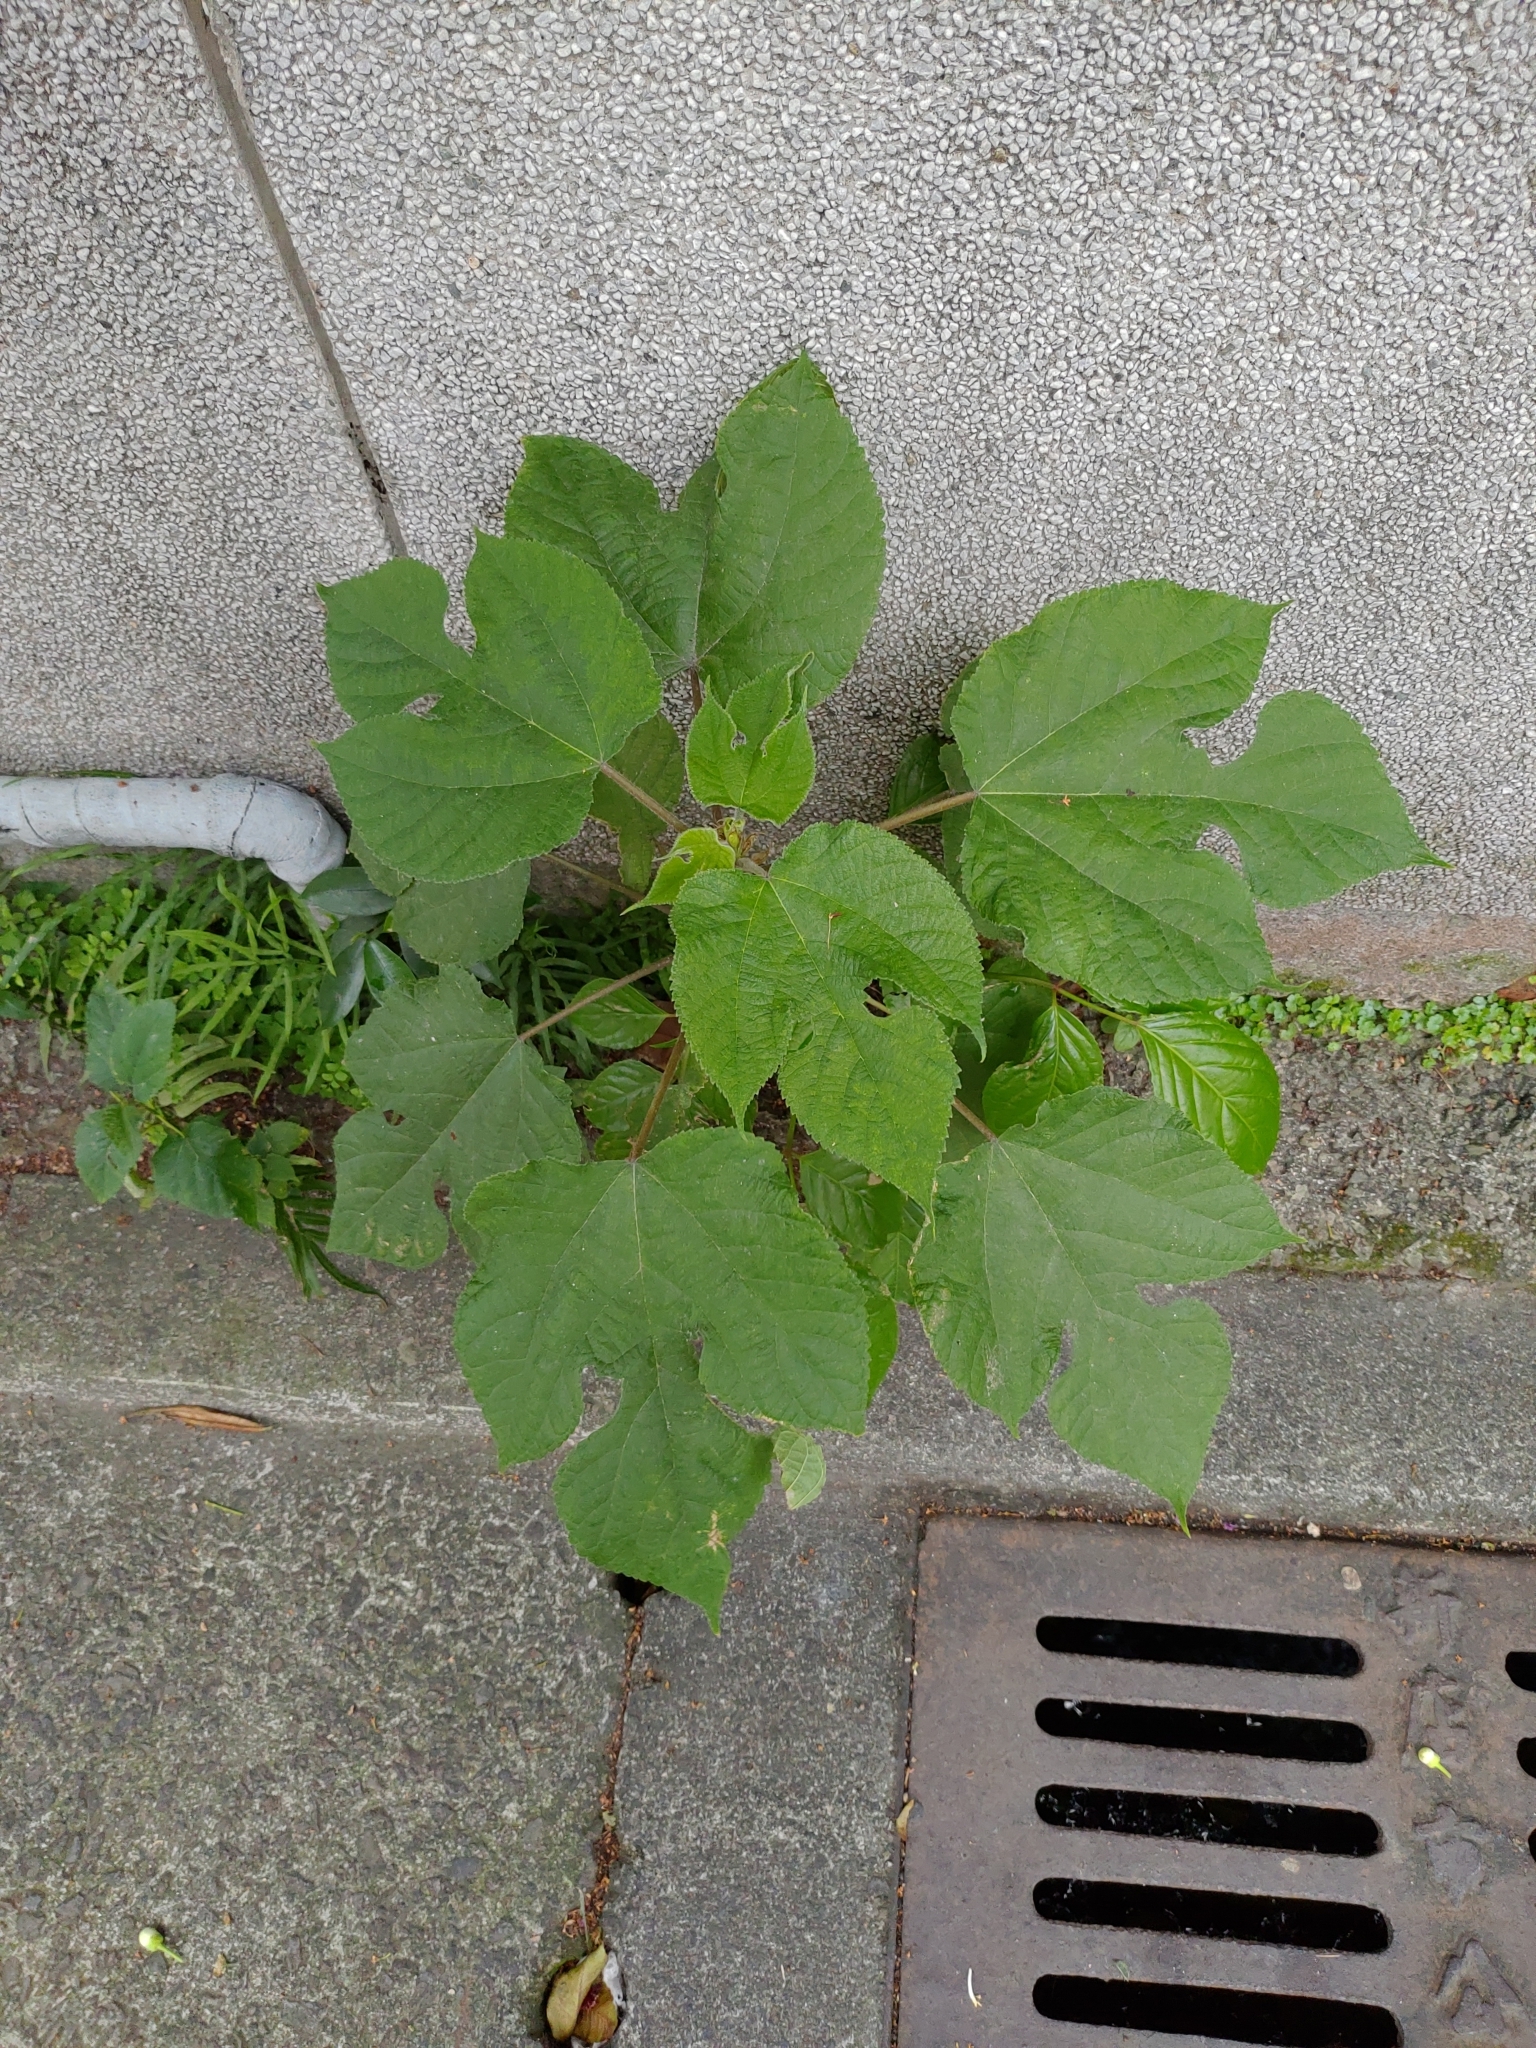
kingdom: Plantae
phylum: Tracheophyta
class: Magnoliopsida
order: Rosales
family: Moraceae
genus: Broussonetia
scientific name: Broussonetia papyrifera
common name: Paper mulberry
